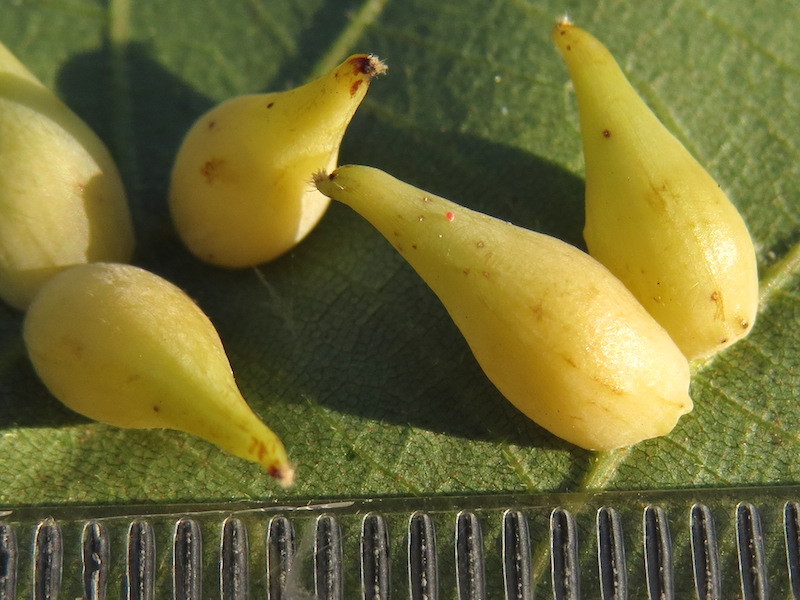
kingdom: Animalia
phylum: Arthropoda
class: Insecta
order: Diptera
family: Cecidomyiidae
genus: Caryomyia
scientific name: Caryomyia caryaecola
